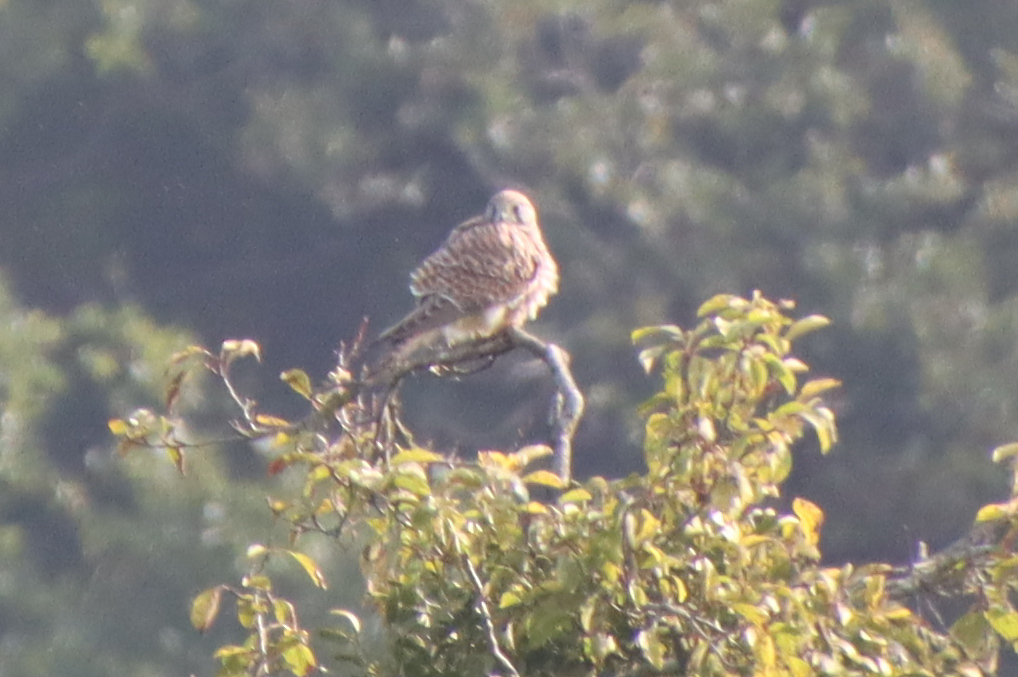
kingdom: Animalia
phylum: Chordata
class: Aves
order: Falconiformes
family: Falconidae
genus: Falco
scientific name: Falco tinnunculus
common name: Common kestrel
